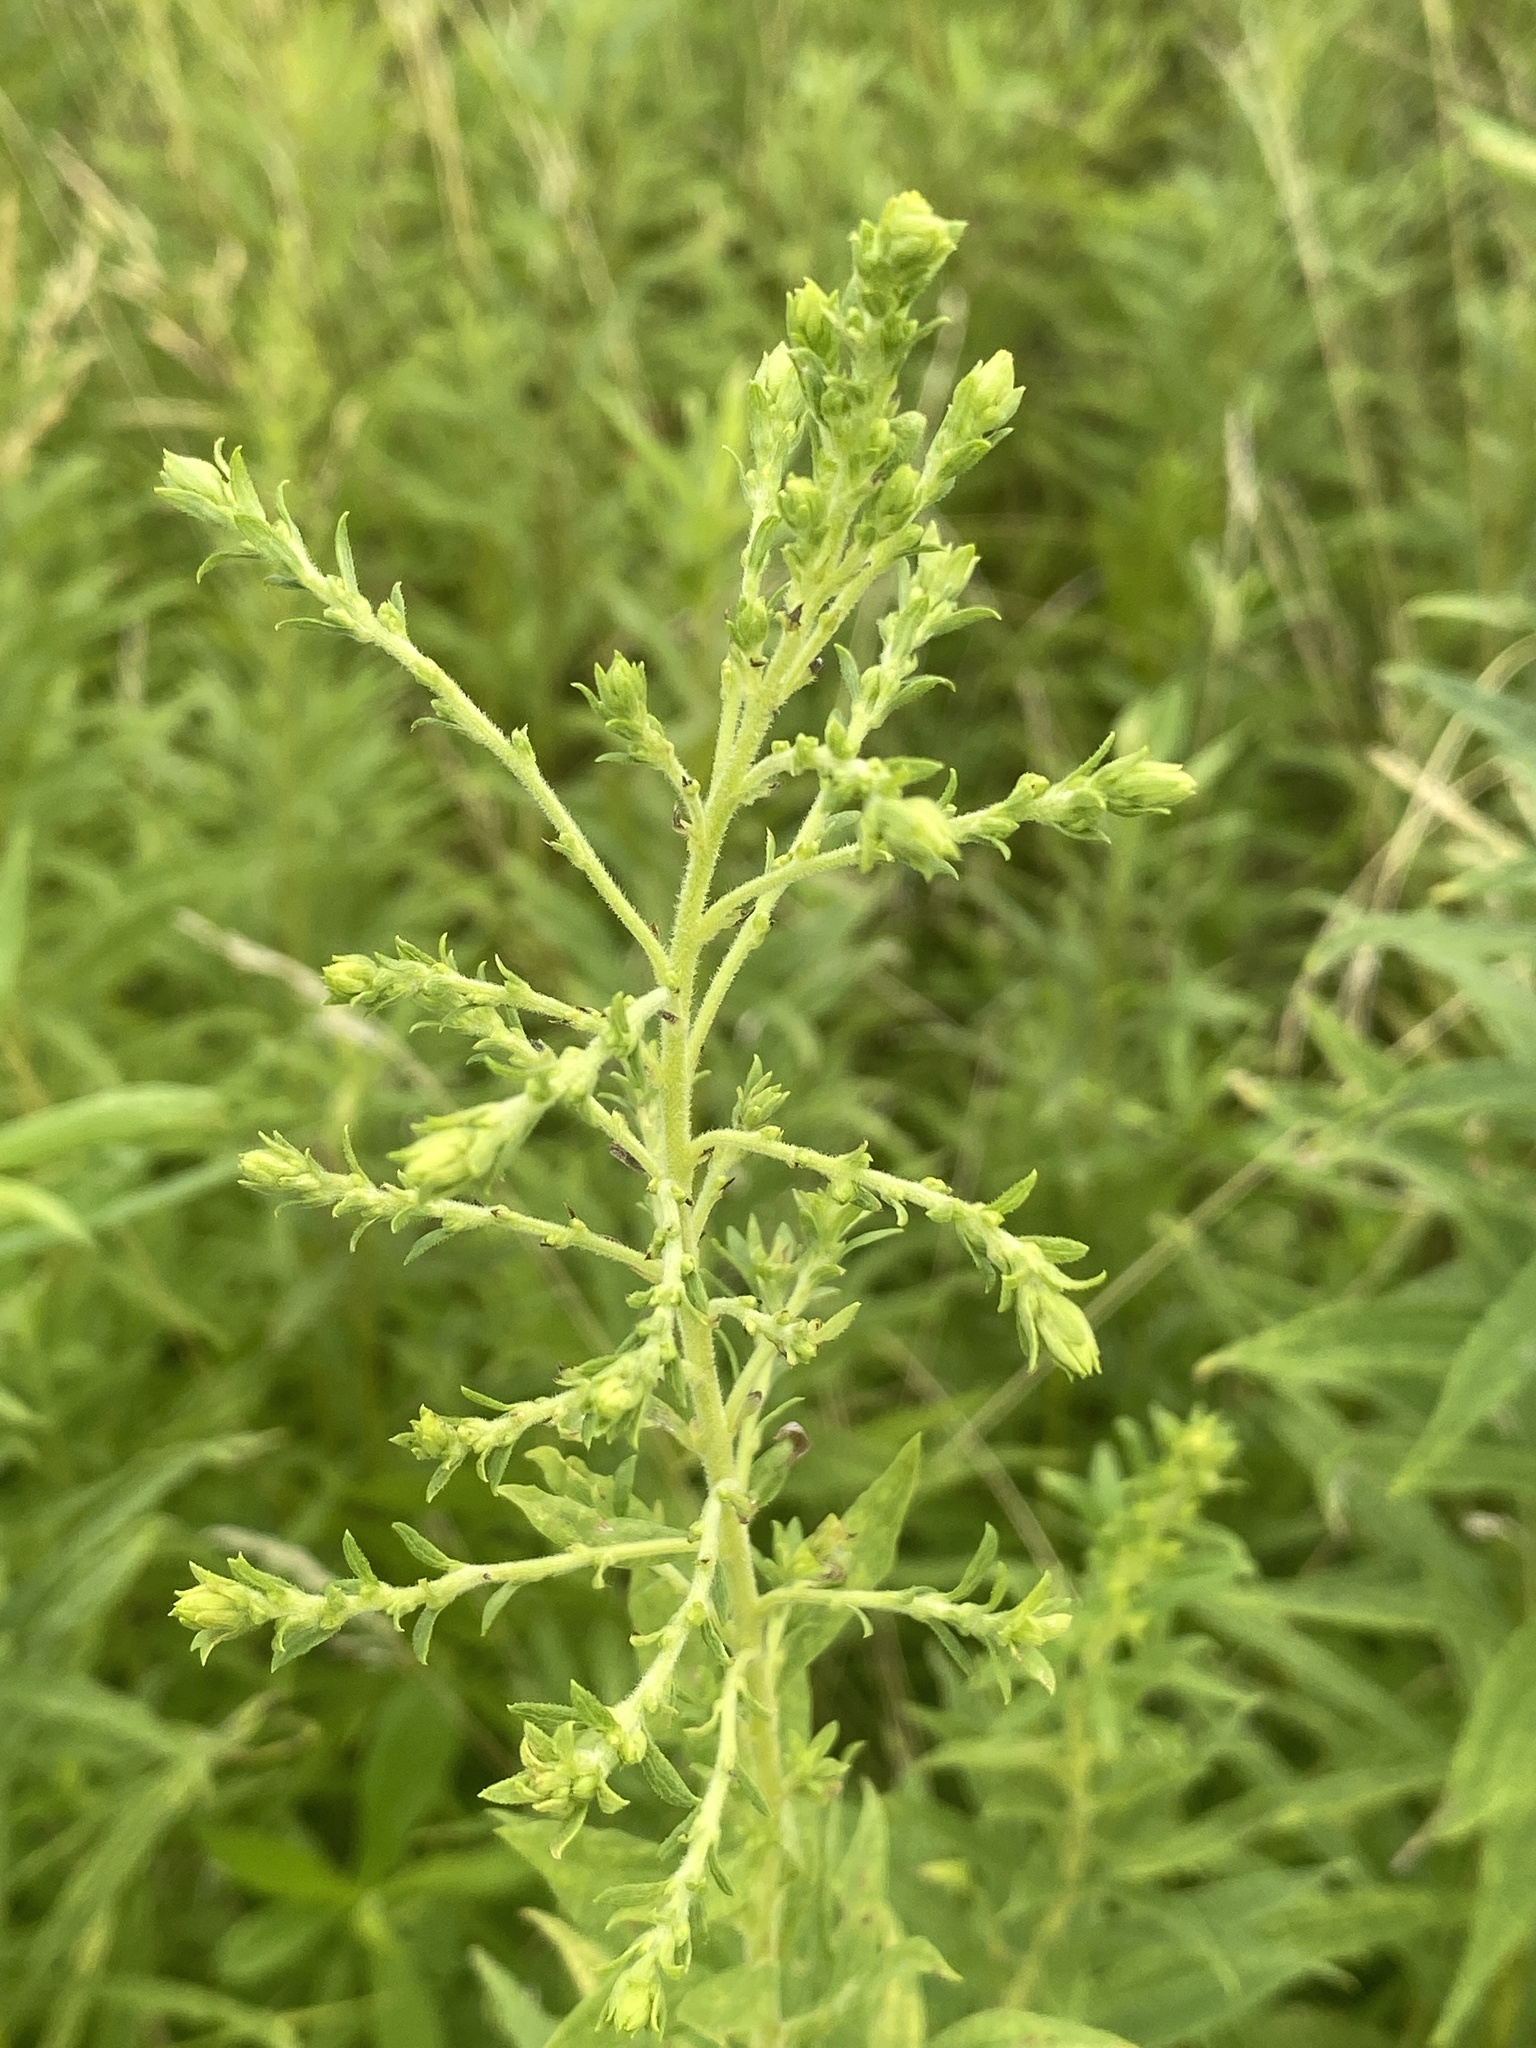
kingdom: Animalia
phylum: Arthropoda
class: Insecta
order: Diptera
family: Tephritidae
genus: Eurosta
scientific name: Eurosta solidaginis
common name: Goldenrod gall fly
